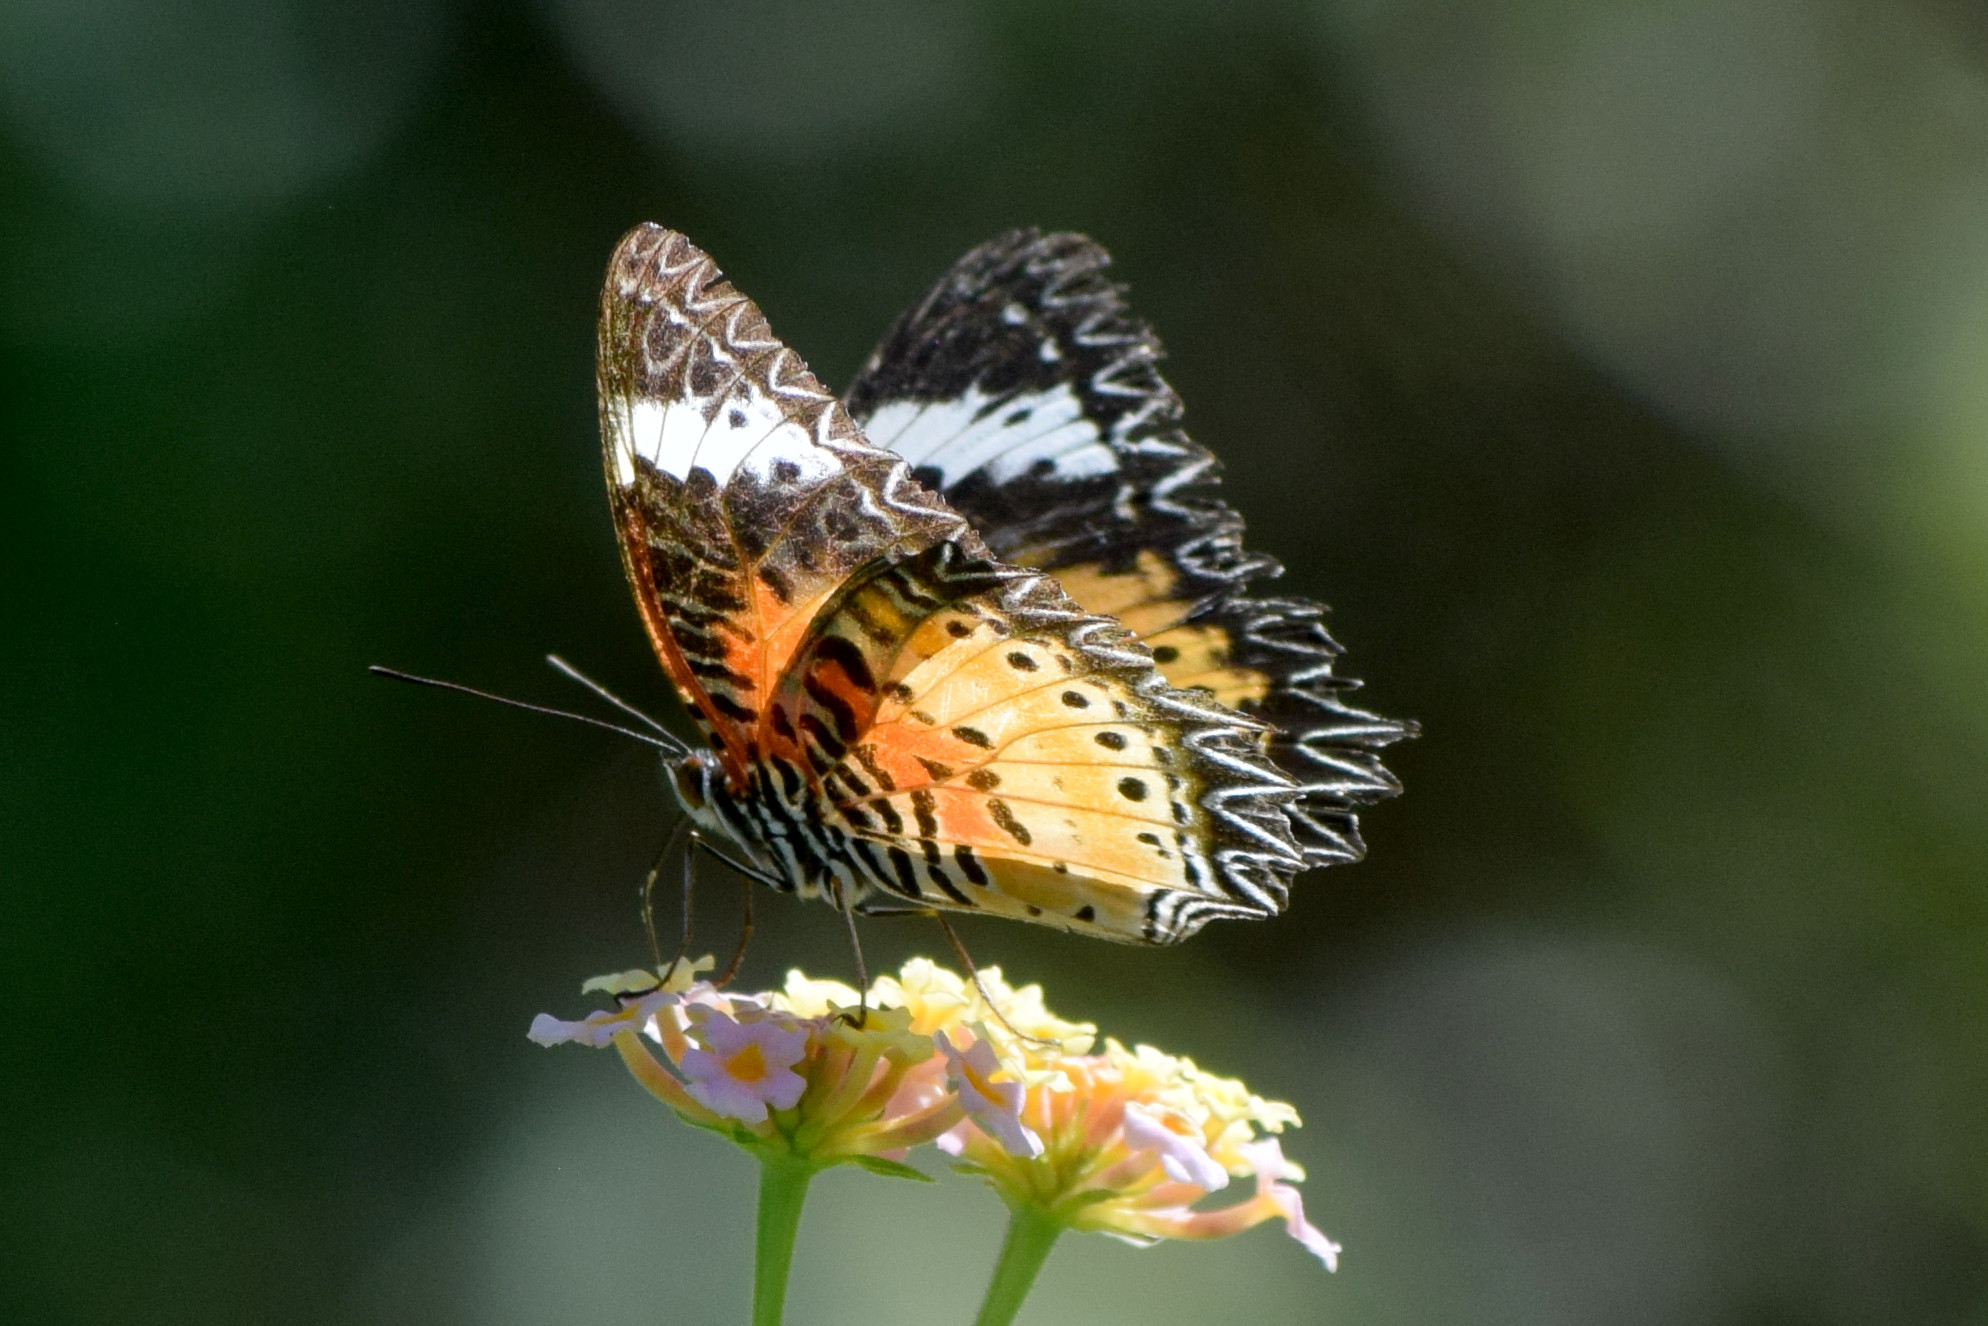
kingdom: Animalia
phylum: Arthropoda
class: Insecta
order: Lepidoptera
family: Nymphalidae
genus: Cethosia
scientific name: Cethosia cyane
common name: Leopard lacewing butterfly
